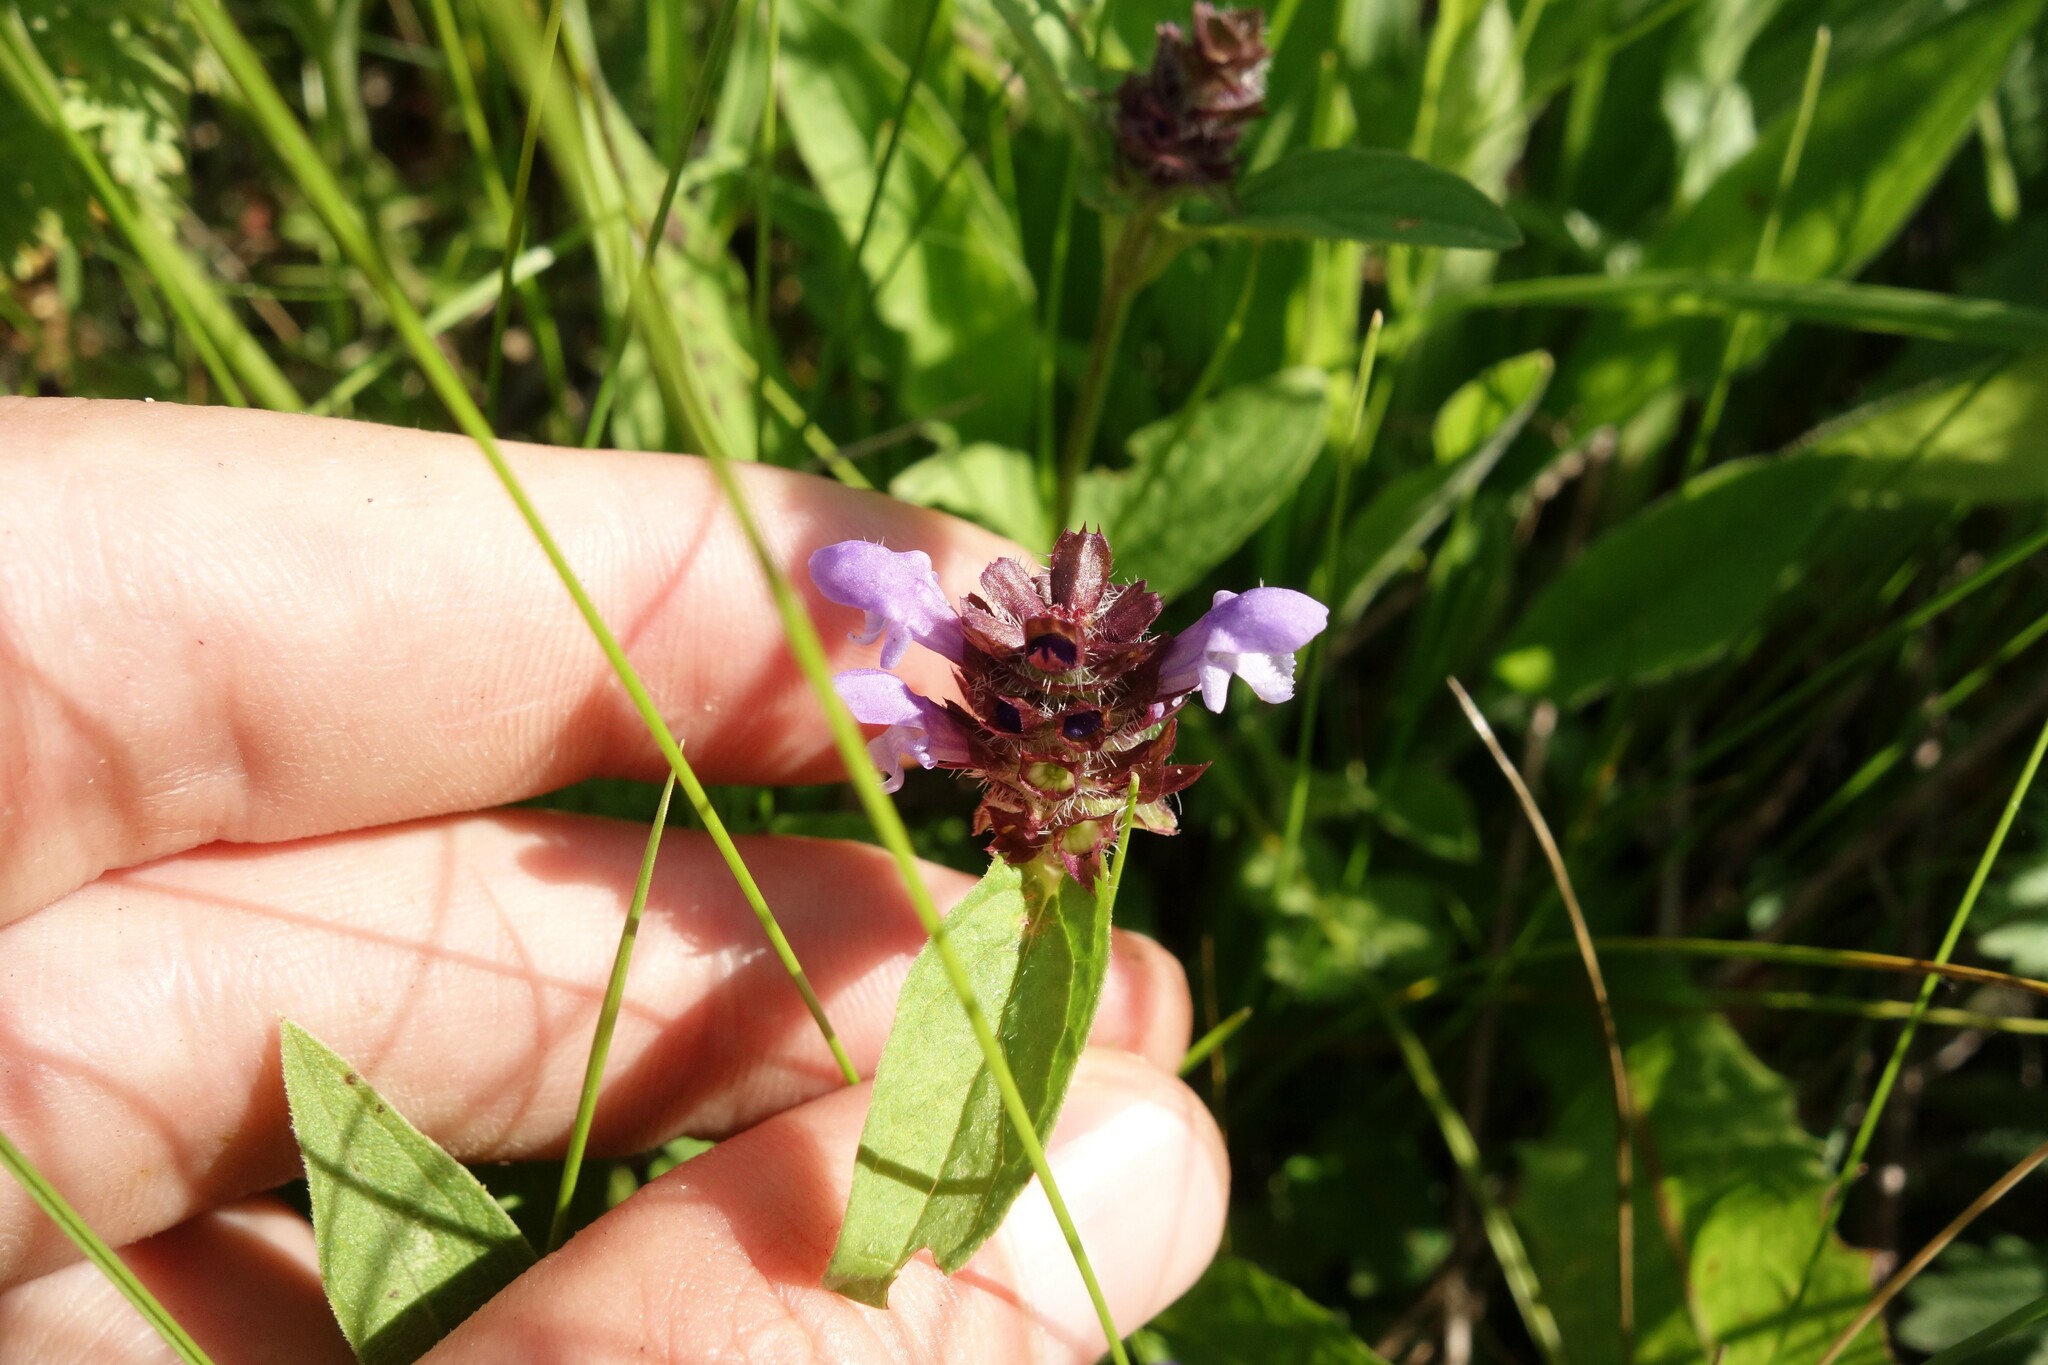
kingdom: Plantae
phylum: Tracheophyta
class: Magnoliopsida
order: Lamiales
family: Lamiaceae
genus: Prunella
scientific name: Prunella vulgaris
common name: Heal-all
